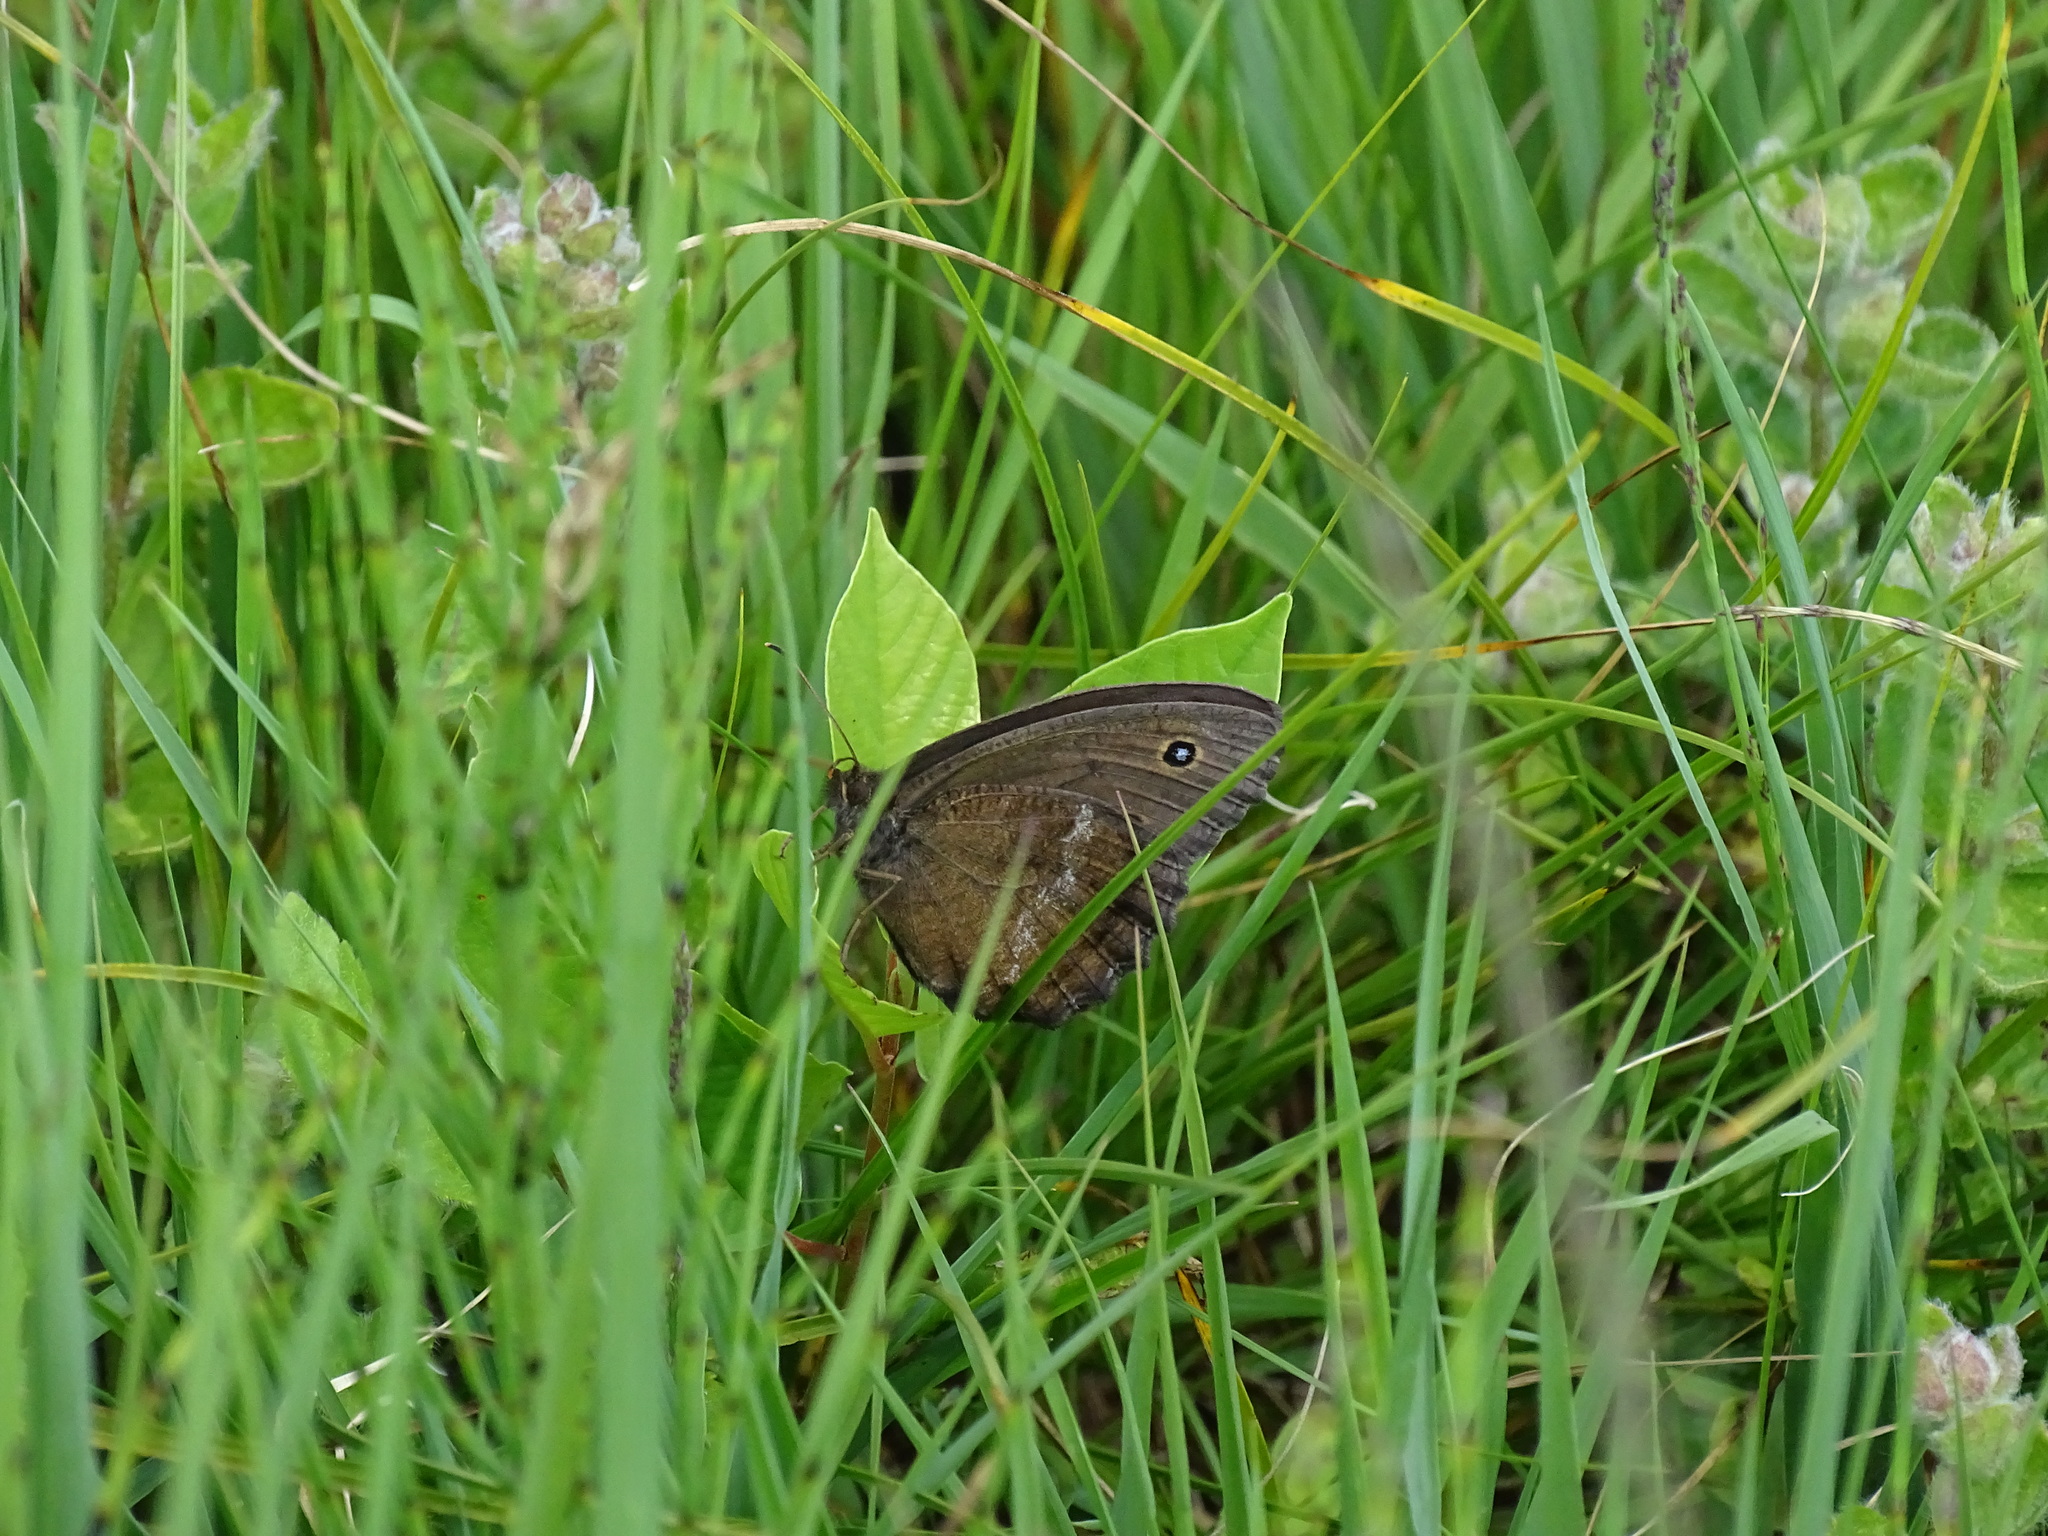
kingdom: Animalia
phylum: Arthropoda
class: Insecta
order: Lepidoptera
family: Nymphalidae
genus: Minois
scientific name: Minois dryas
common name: Dryad
